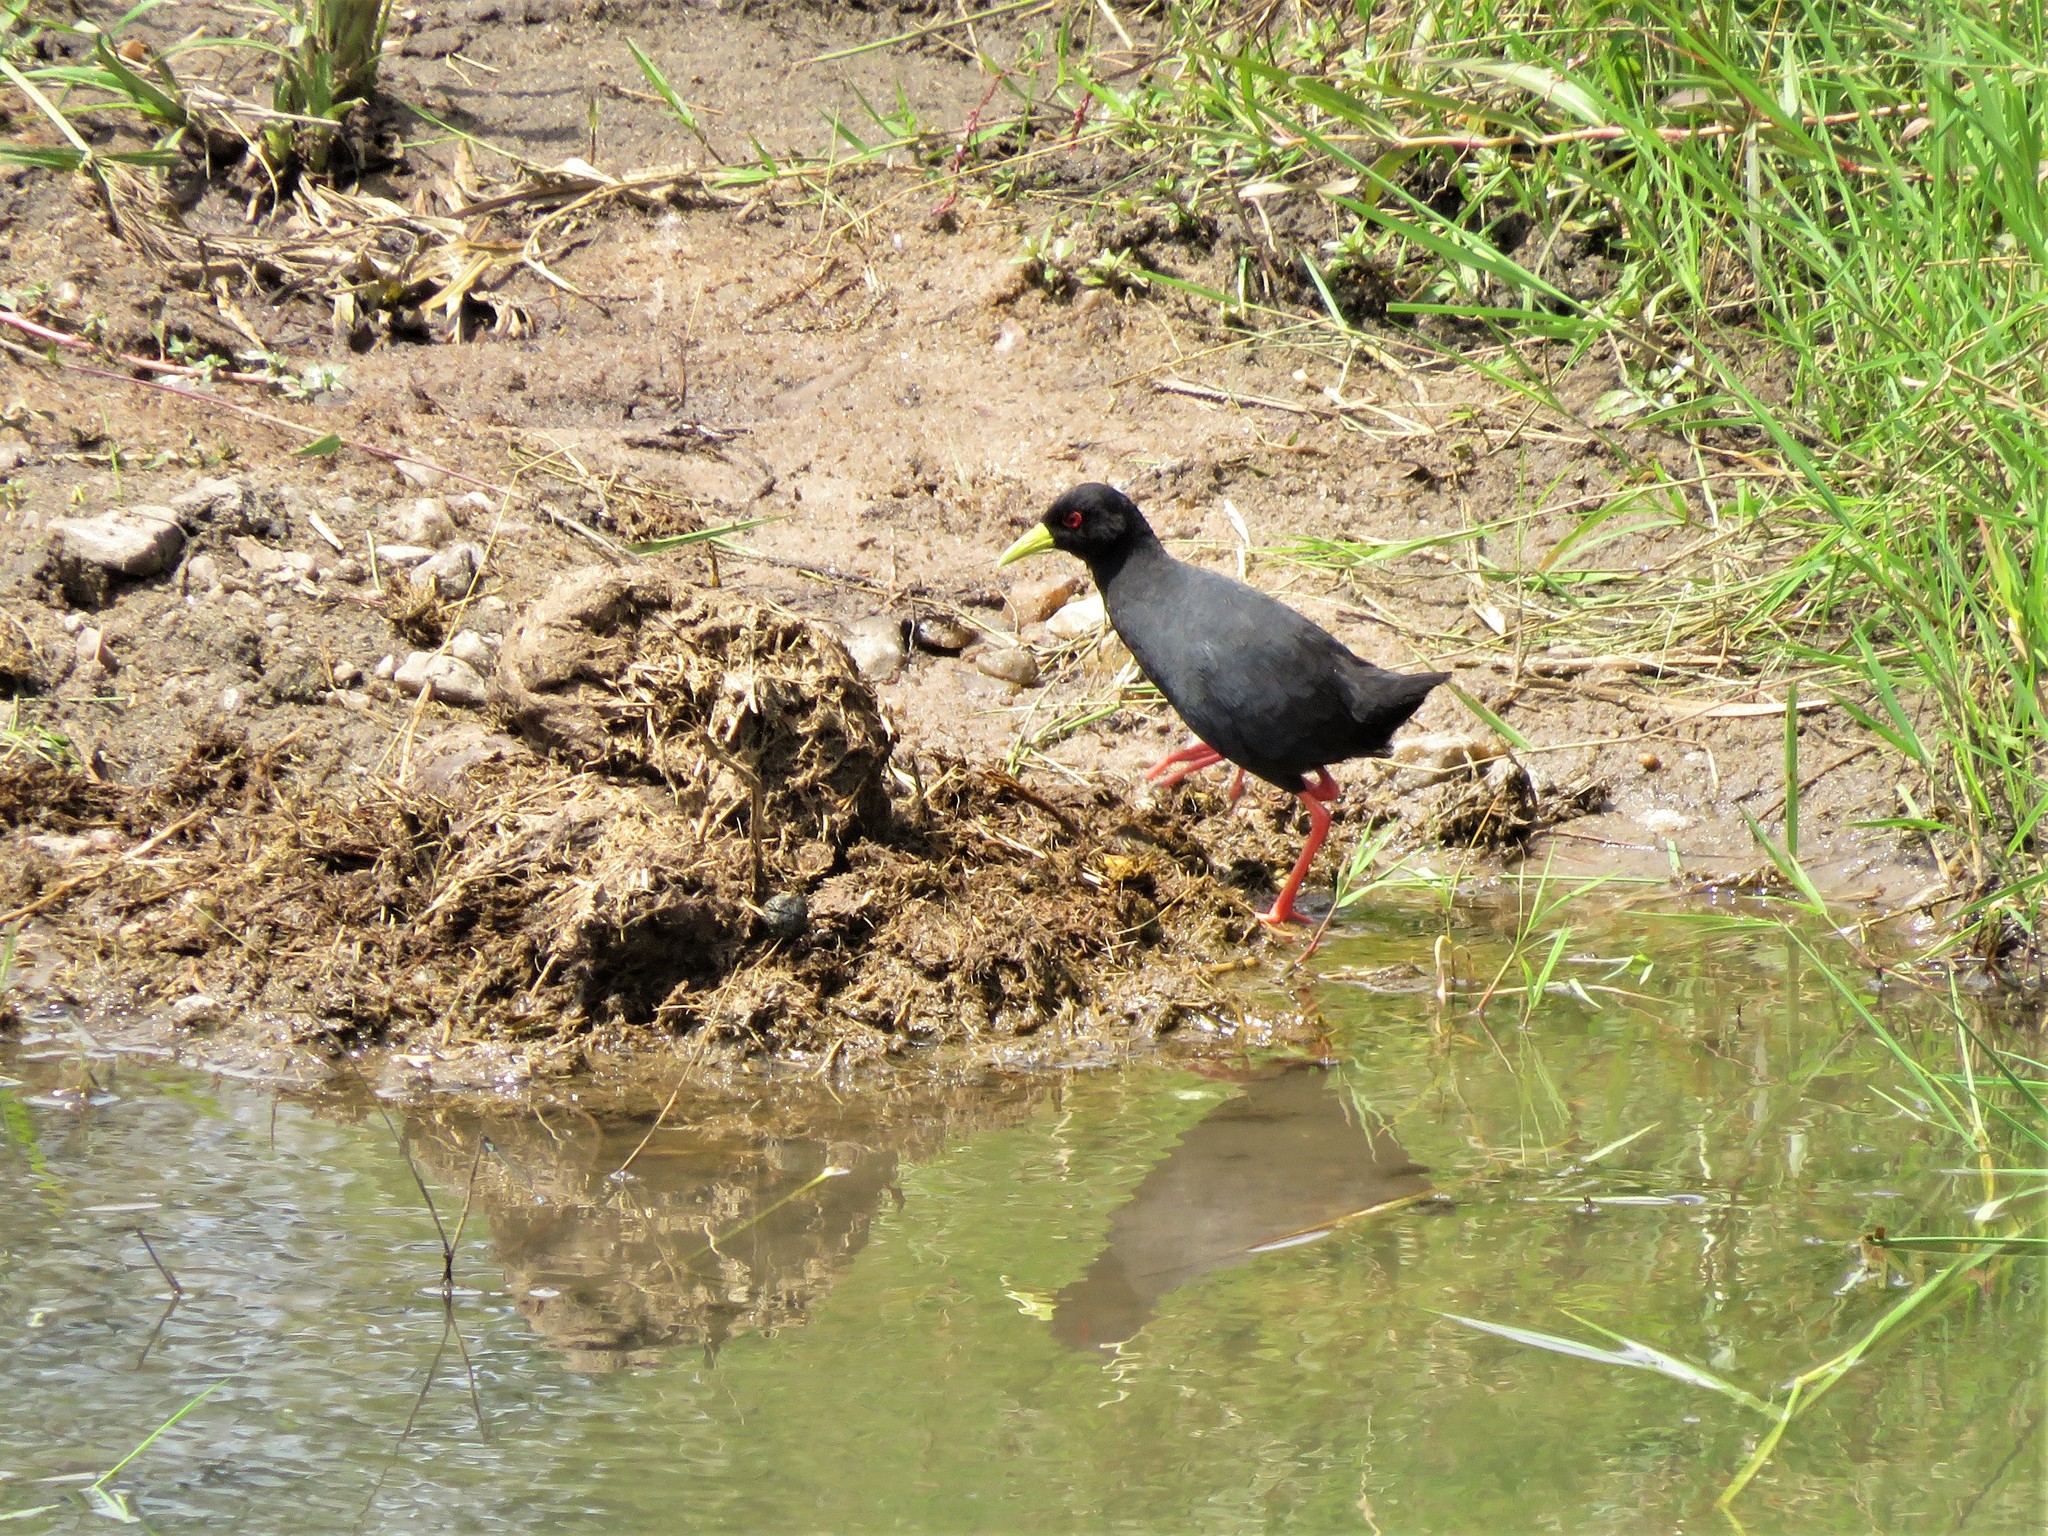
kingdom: Animalia
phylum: Chordata
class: Aves
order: Gruiformes
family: Rallidae
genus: Amaurornis
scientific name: Amaurornis flavirostra
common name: Black crake
